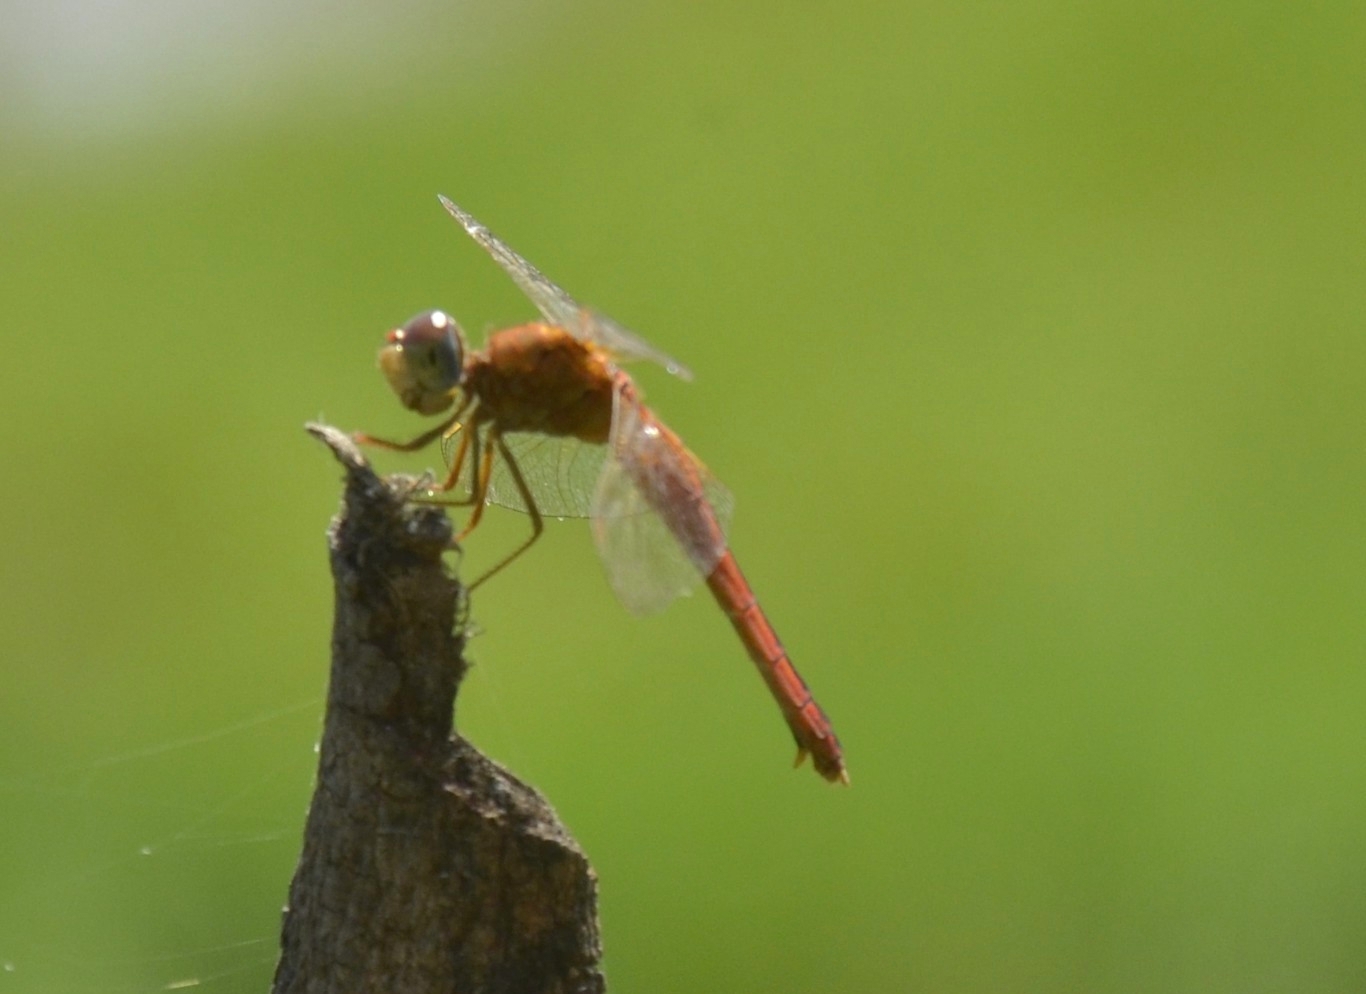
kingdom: Animalia
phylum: Arthropoda
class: Insecta
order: Odonata
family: Libellulidae
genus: Crocothemis
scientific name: Crocothemis servilia
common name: Scarlet skimmer
